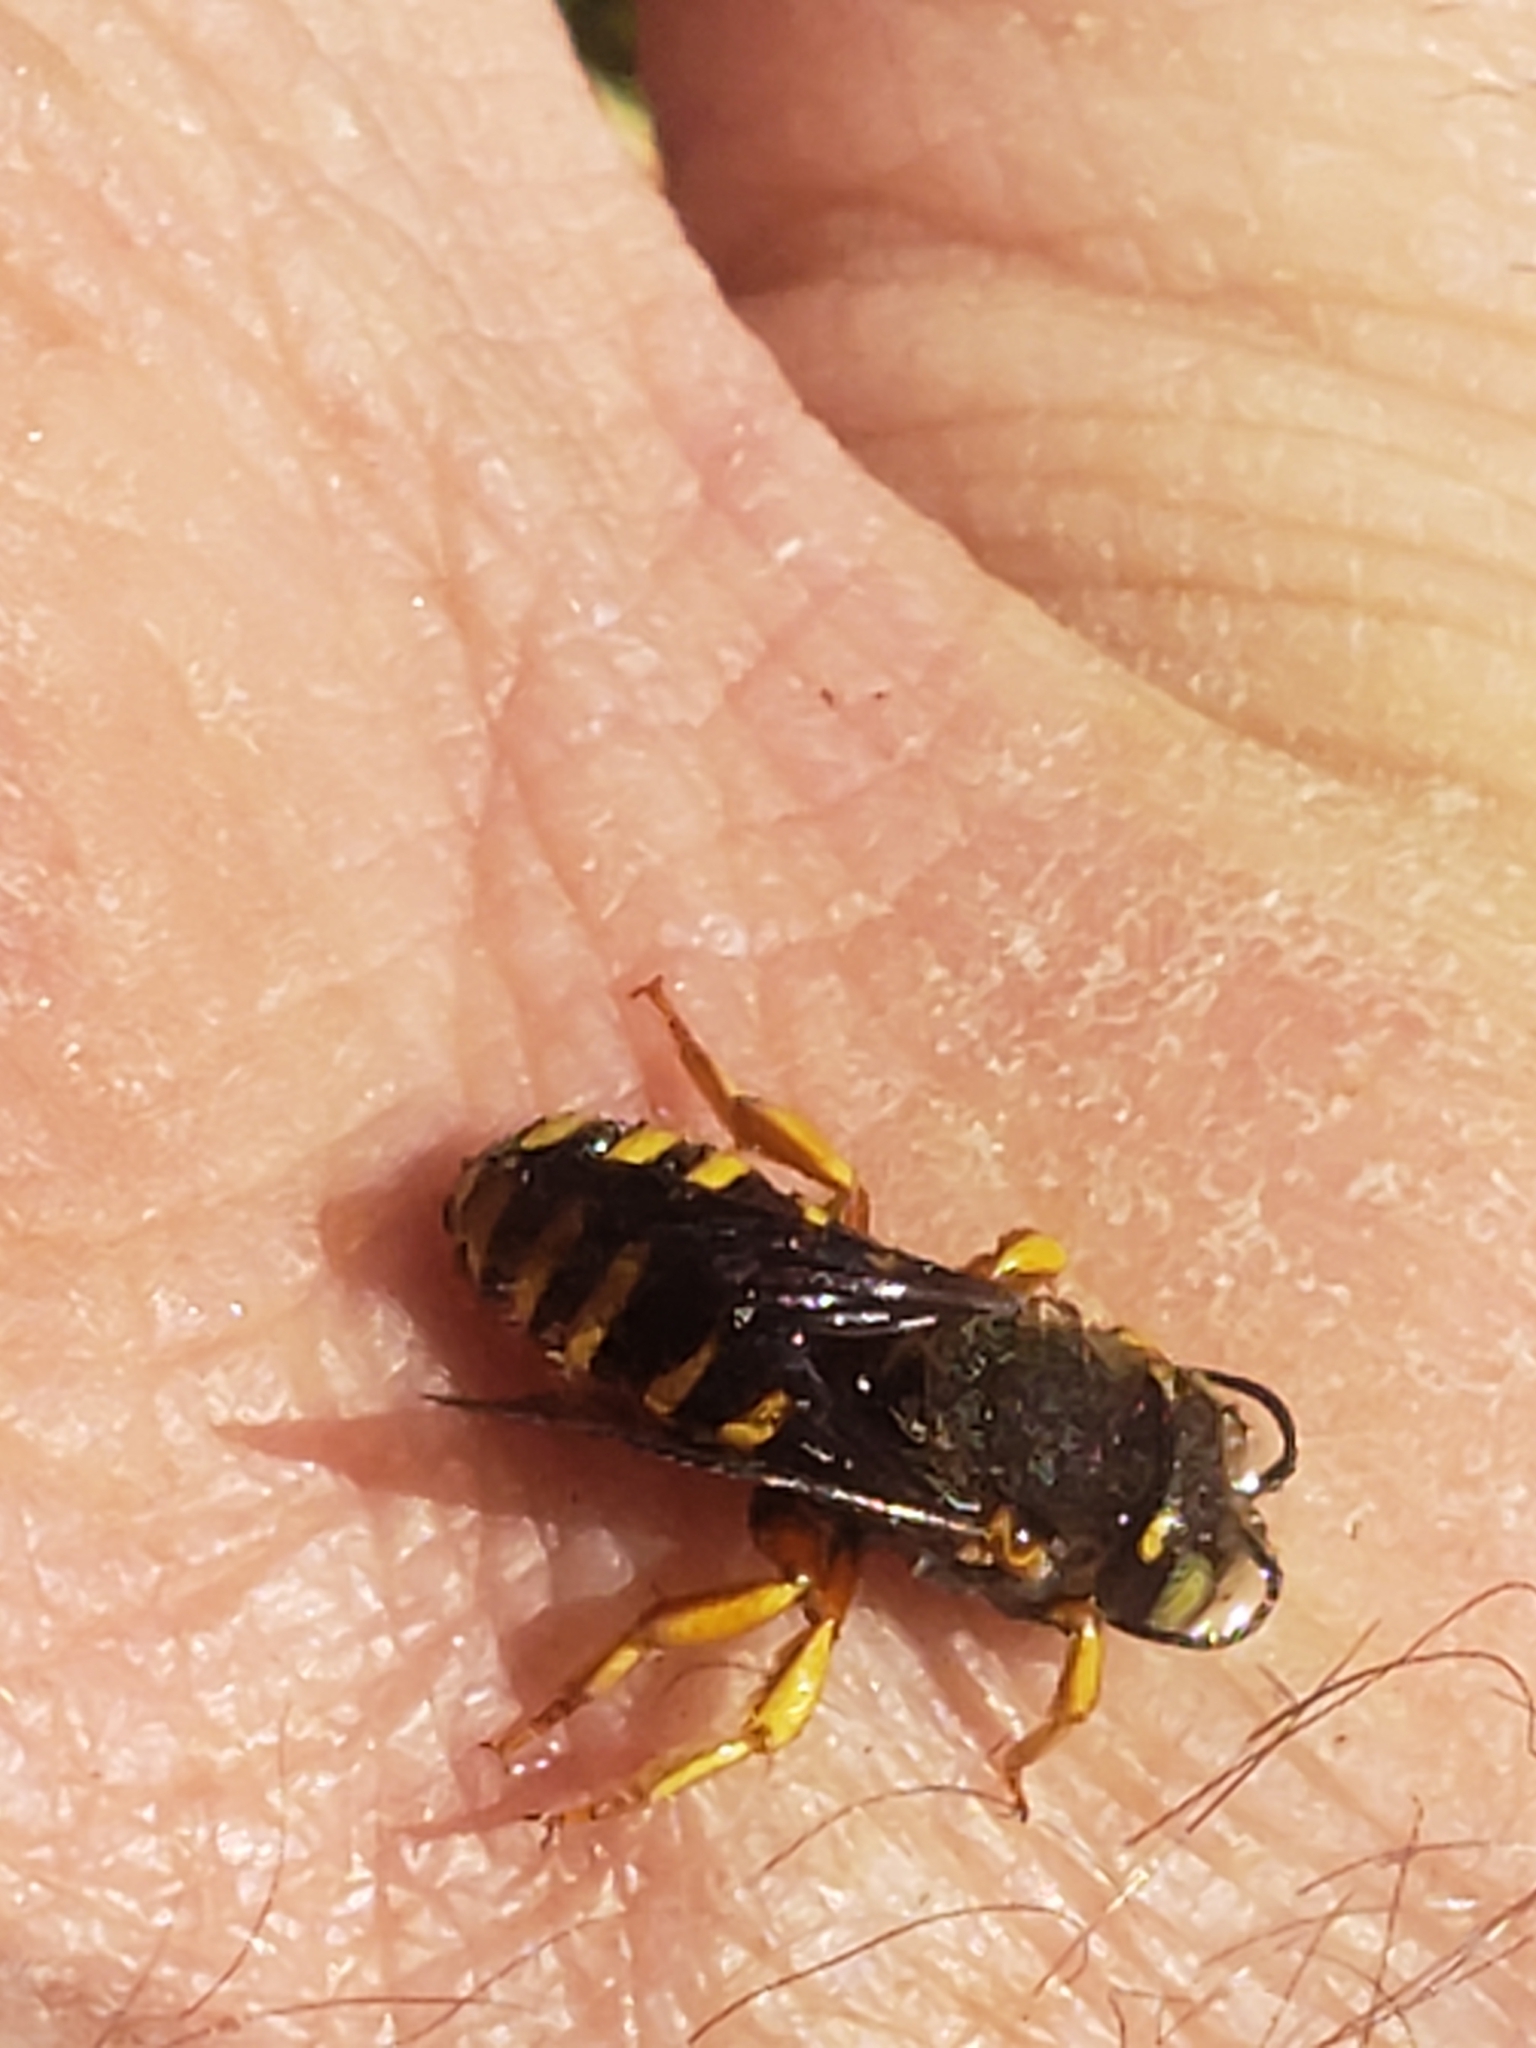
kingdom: Animalia
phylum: Arthropoda
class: Insecta
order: Hymenoptera
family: Megachilidae
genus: Anthidium
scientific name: Anthidium oblongatum
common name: Oblong wool carder bee
